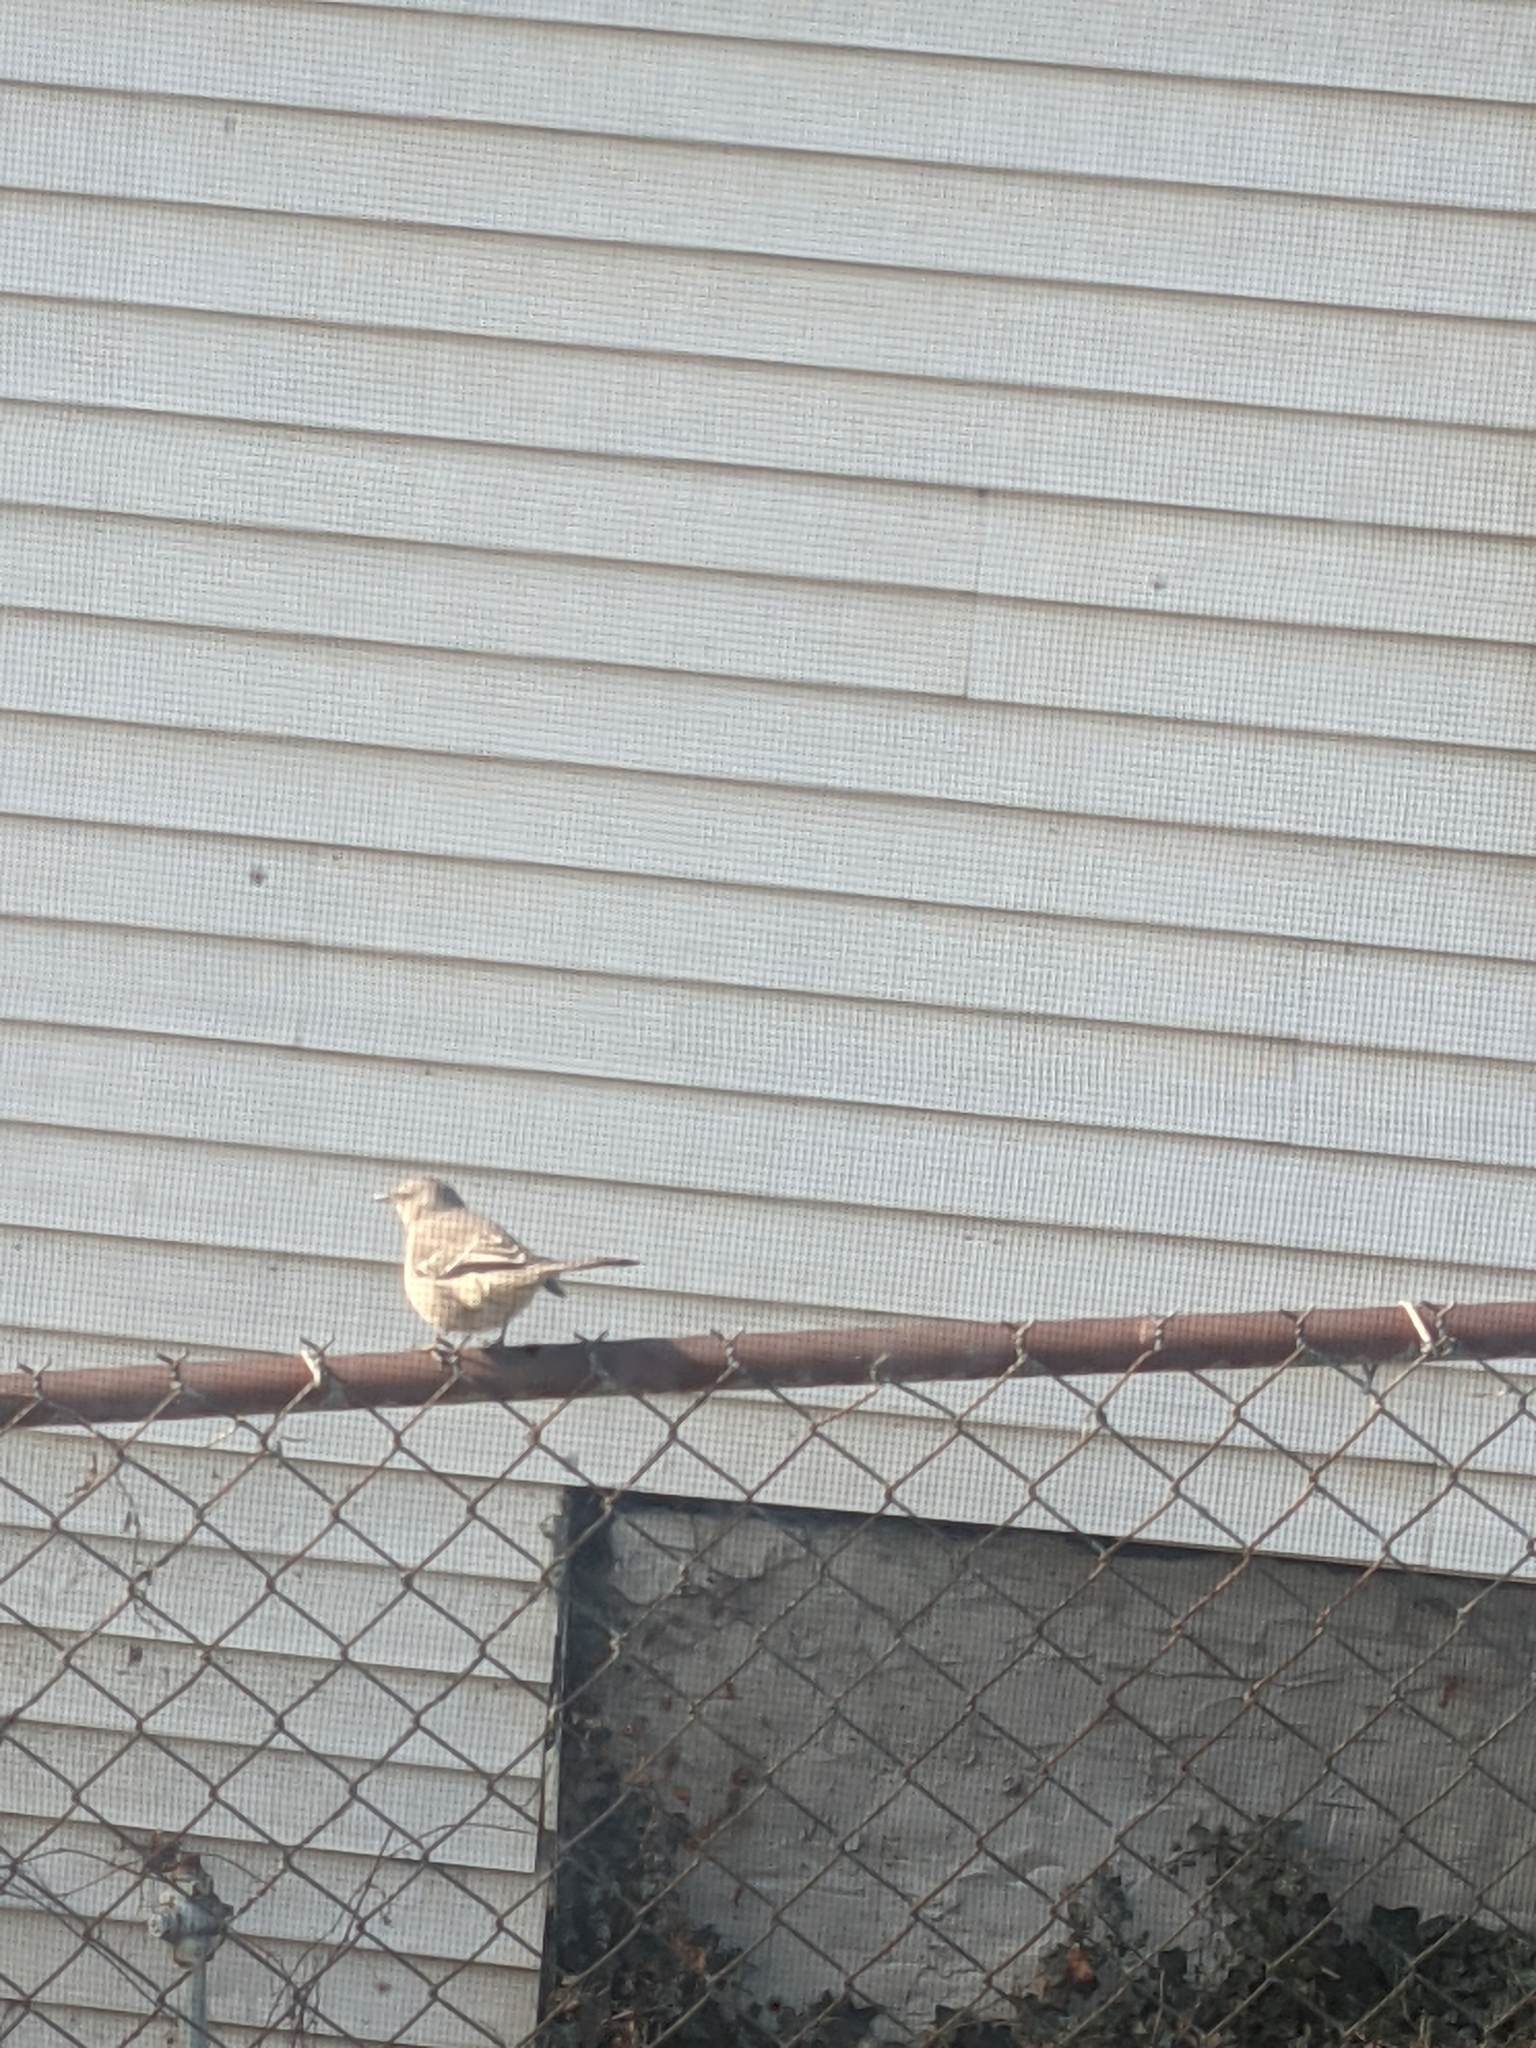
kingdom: Animalia
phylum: Chordata
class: Aves
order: Passeriformes
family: Mimidae
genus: Mimus
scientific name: Mimus polyglottos
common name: Northern mockingbird
